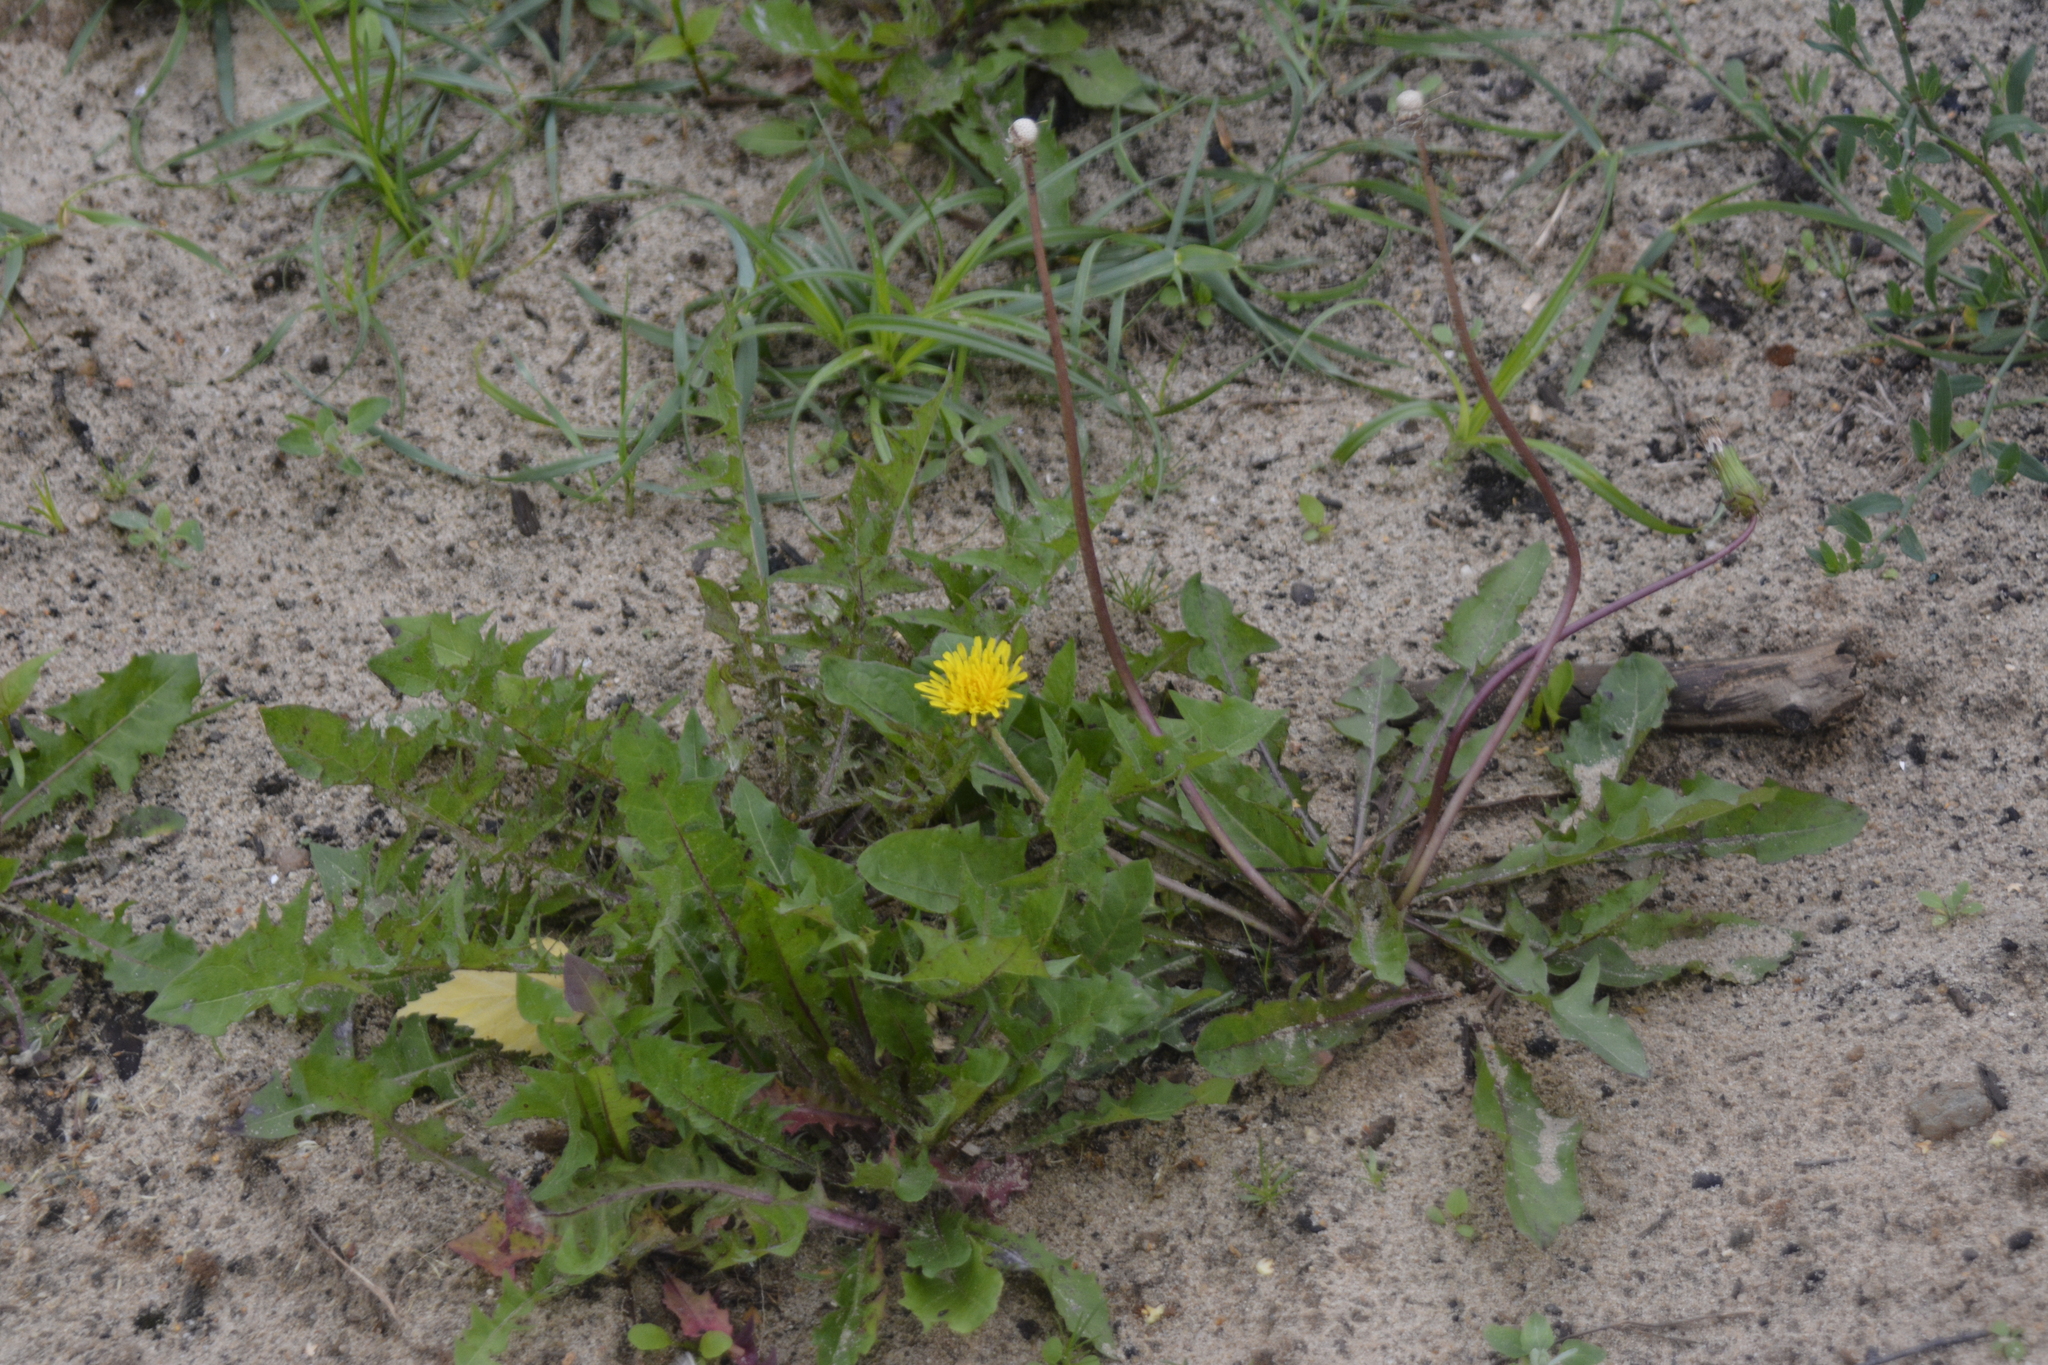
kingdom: Plantae
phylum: Tracheophyta
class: Magnoliopsida
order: Asterales
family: Asteraceae
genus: Taraxacum
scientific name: Taraxacum officinale
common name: Common dandelion
